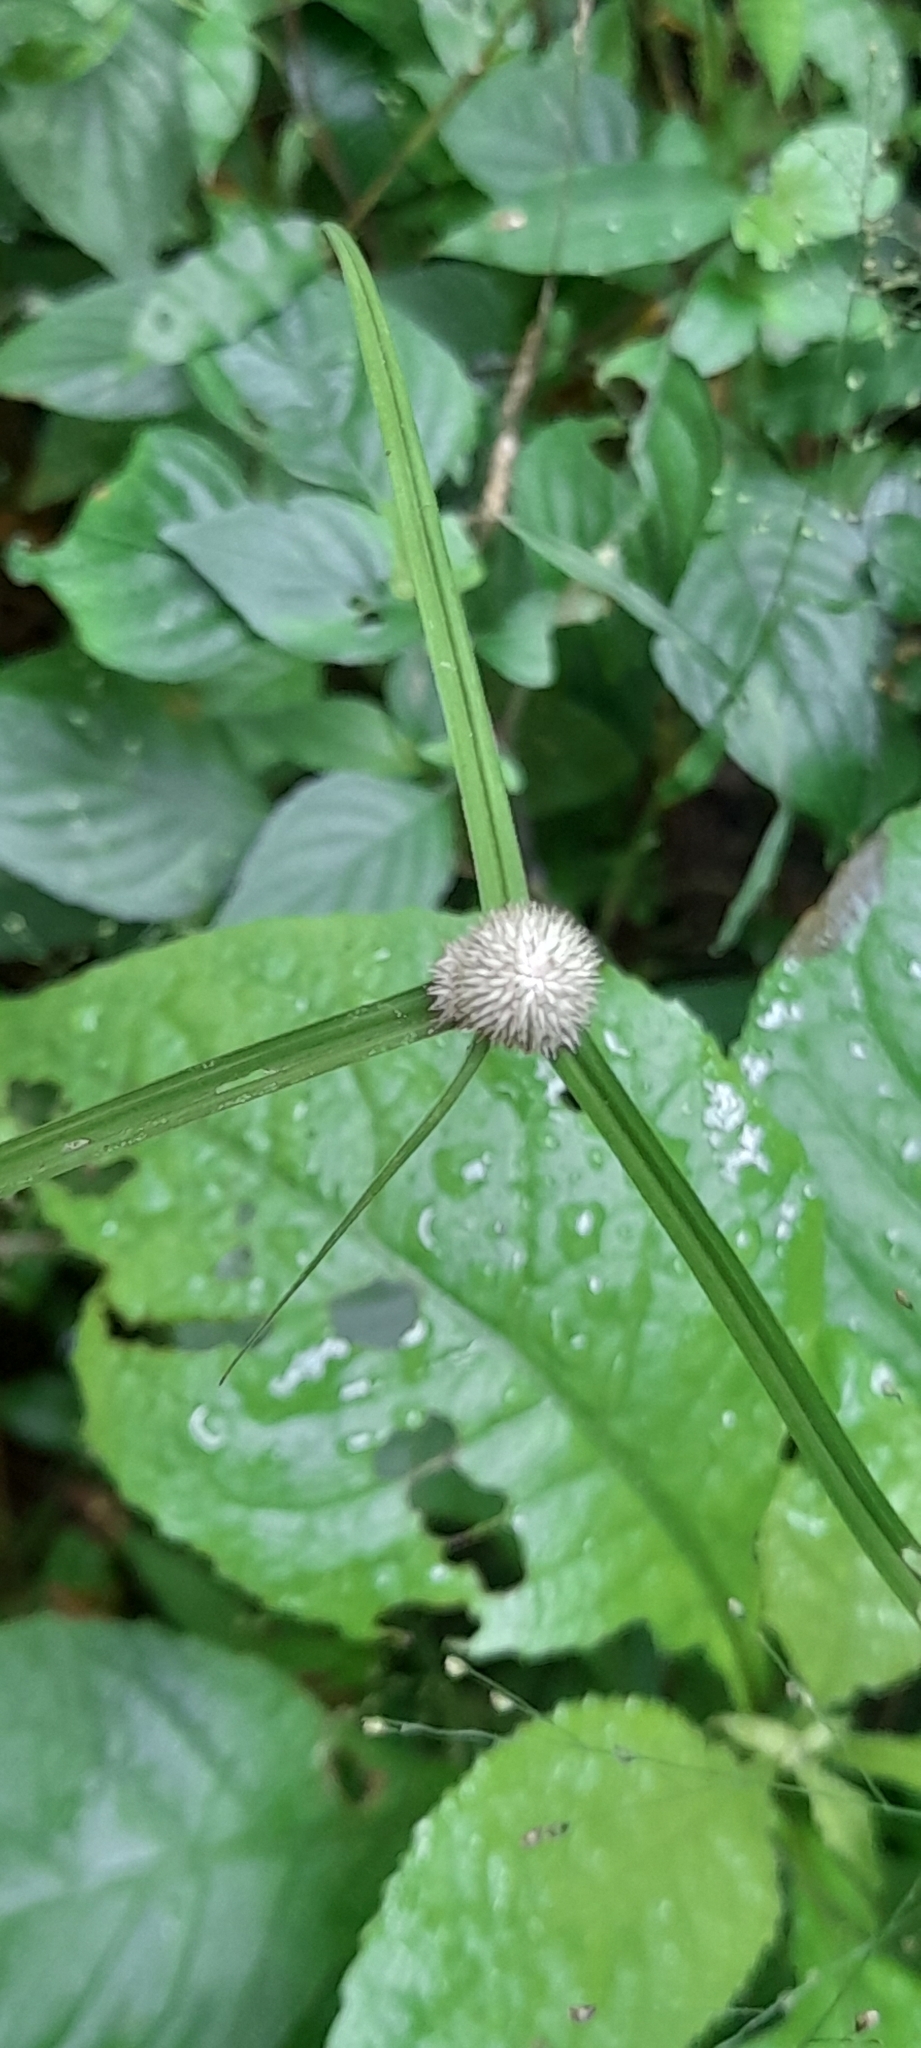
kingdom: Plantae
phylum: Tracheophyta
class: Liliopsida
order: Poales
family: Cyperaceae
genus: Cyperus
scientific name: Cyperus mindorensis
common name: Flatsedge
